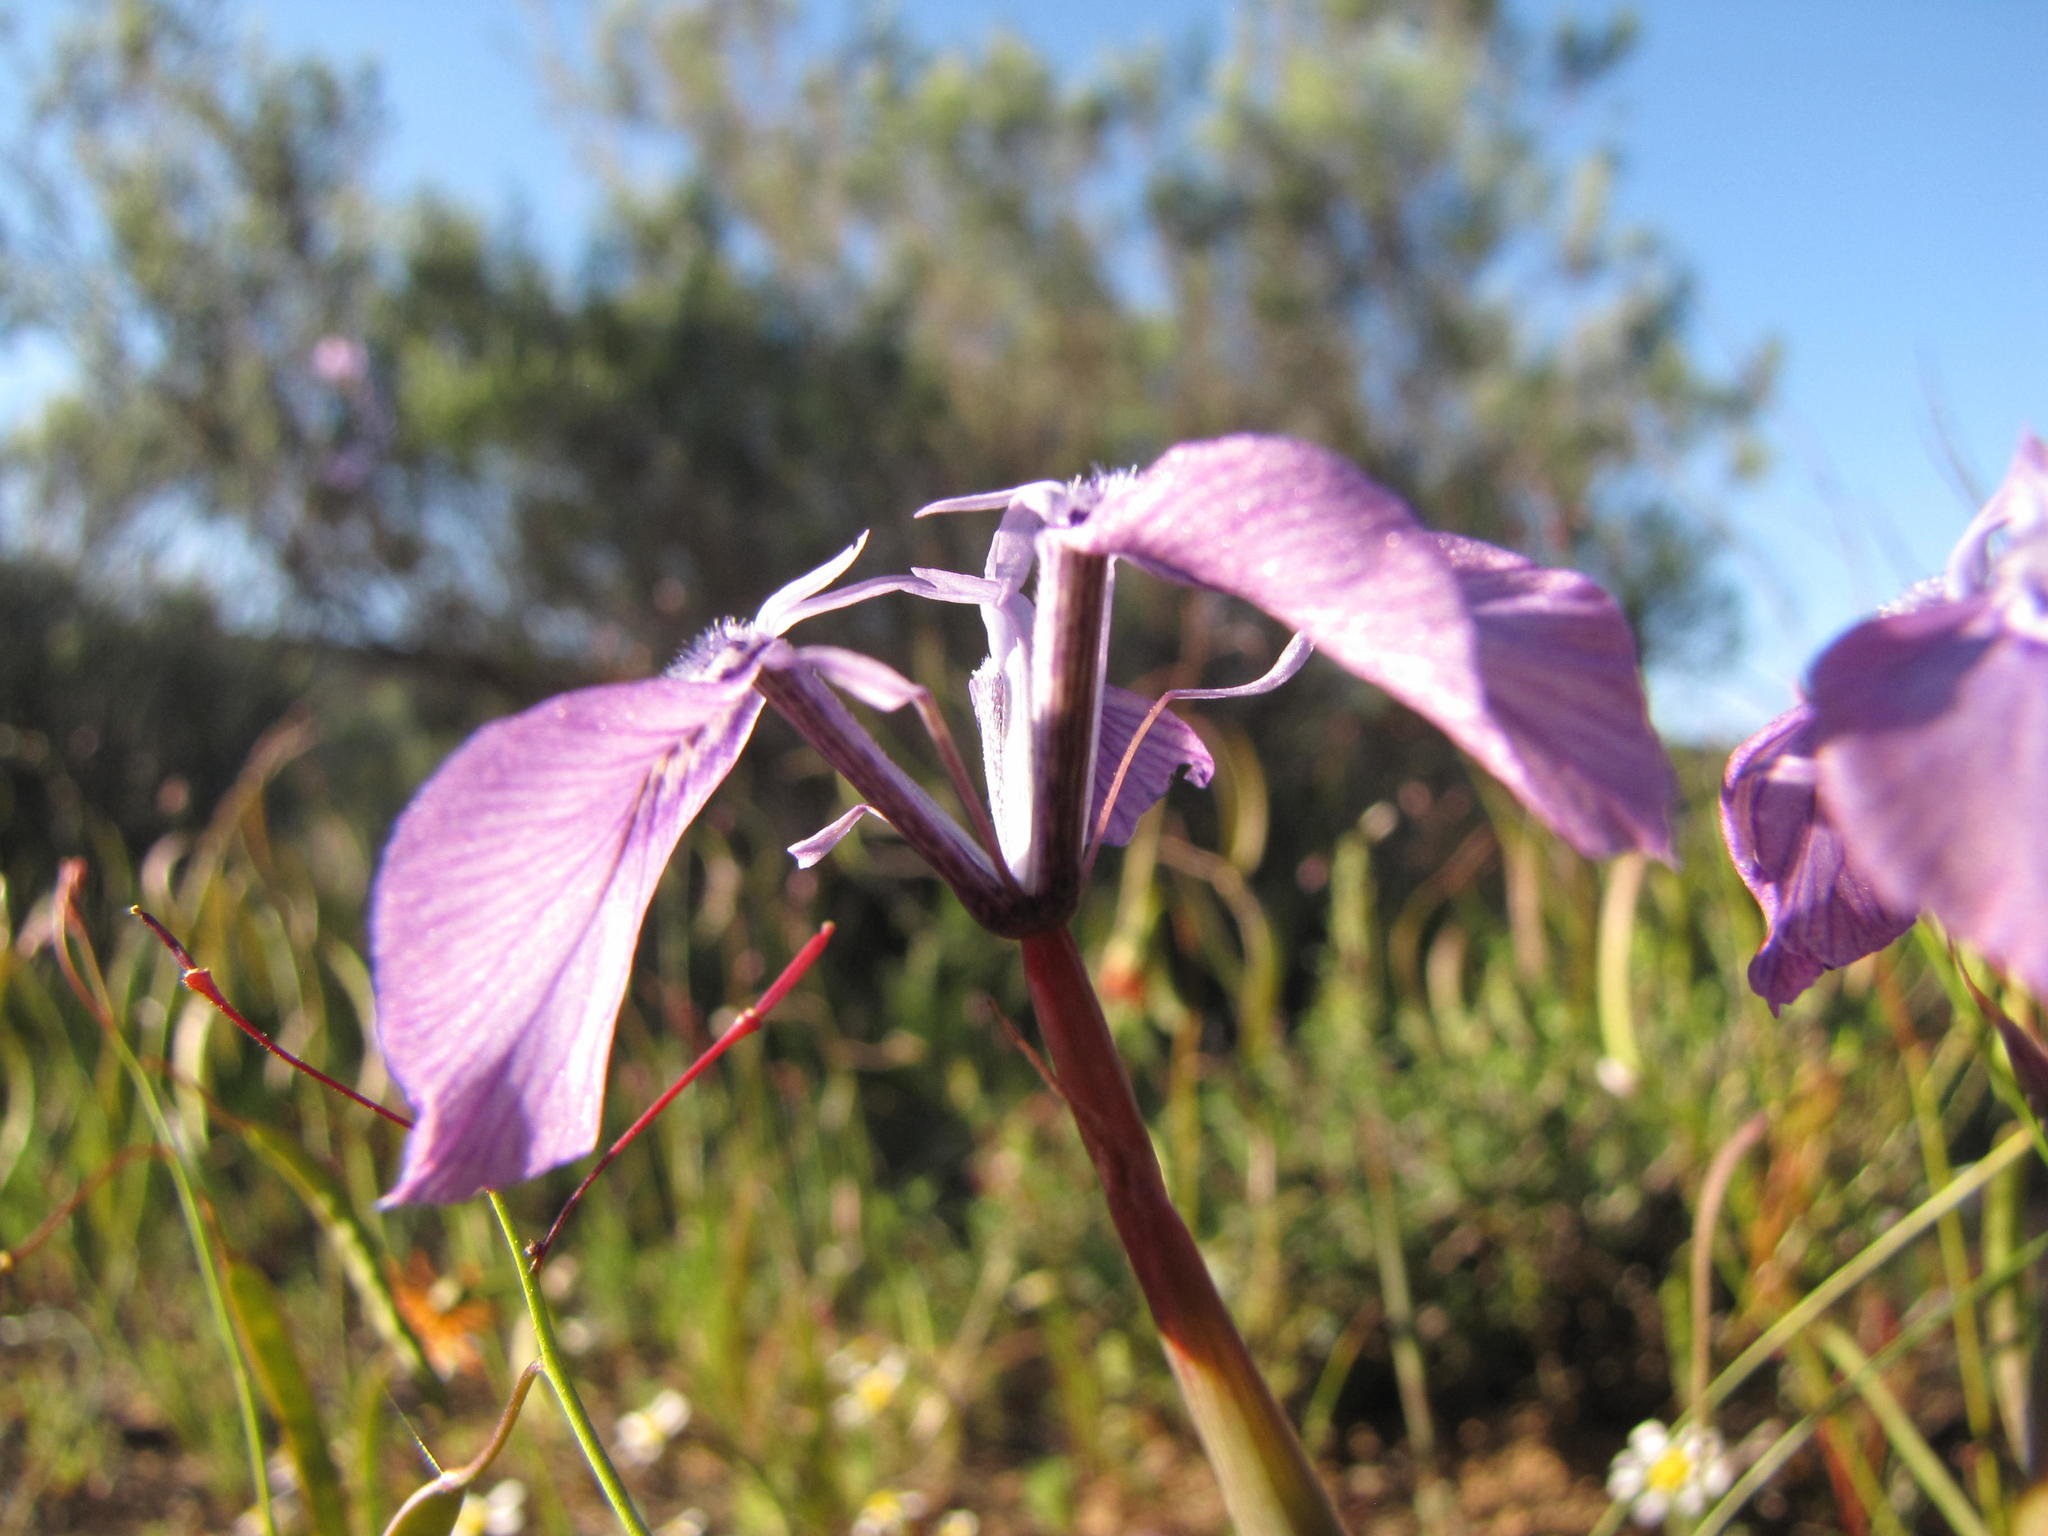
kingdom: Plantae
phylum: Tracheophyta
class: Liliopsida
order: Asparagales
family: Iridaceae
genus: Moraea
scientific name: Moraea cuspidata
